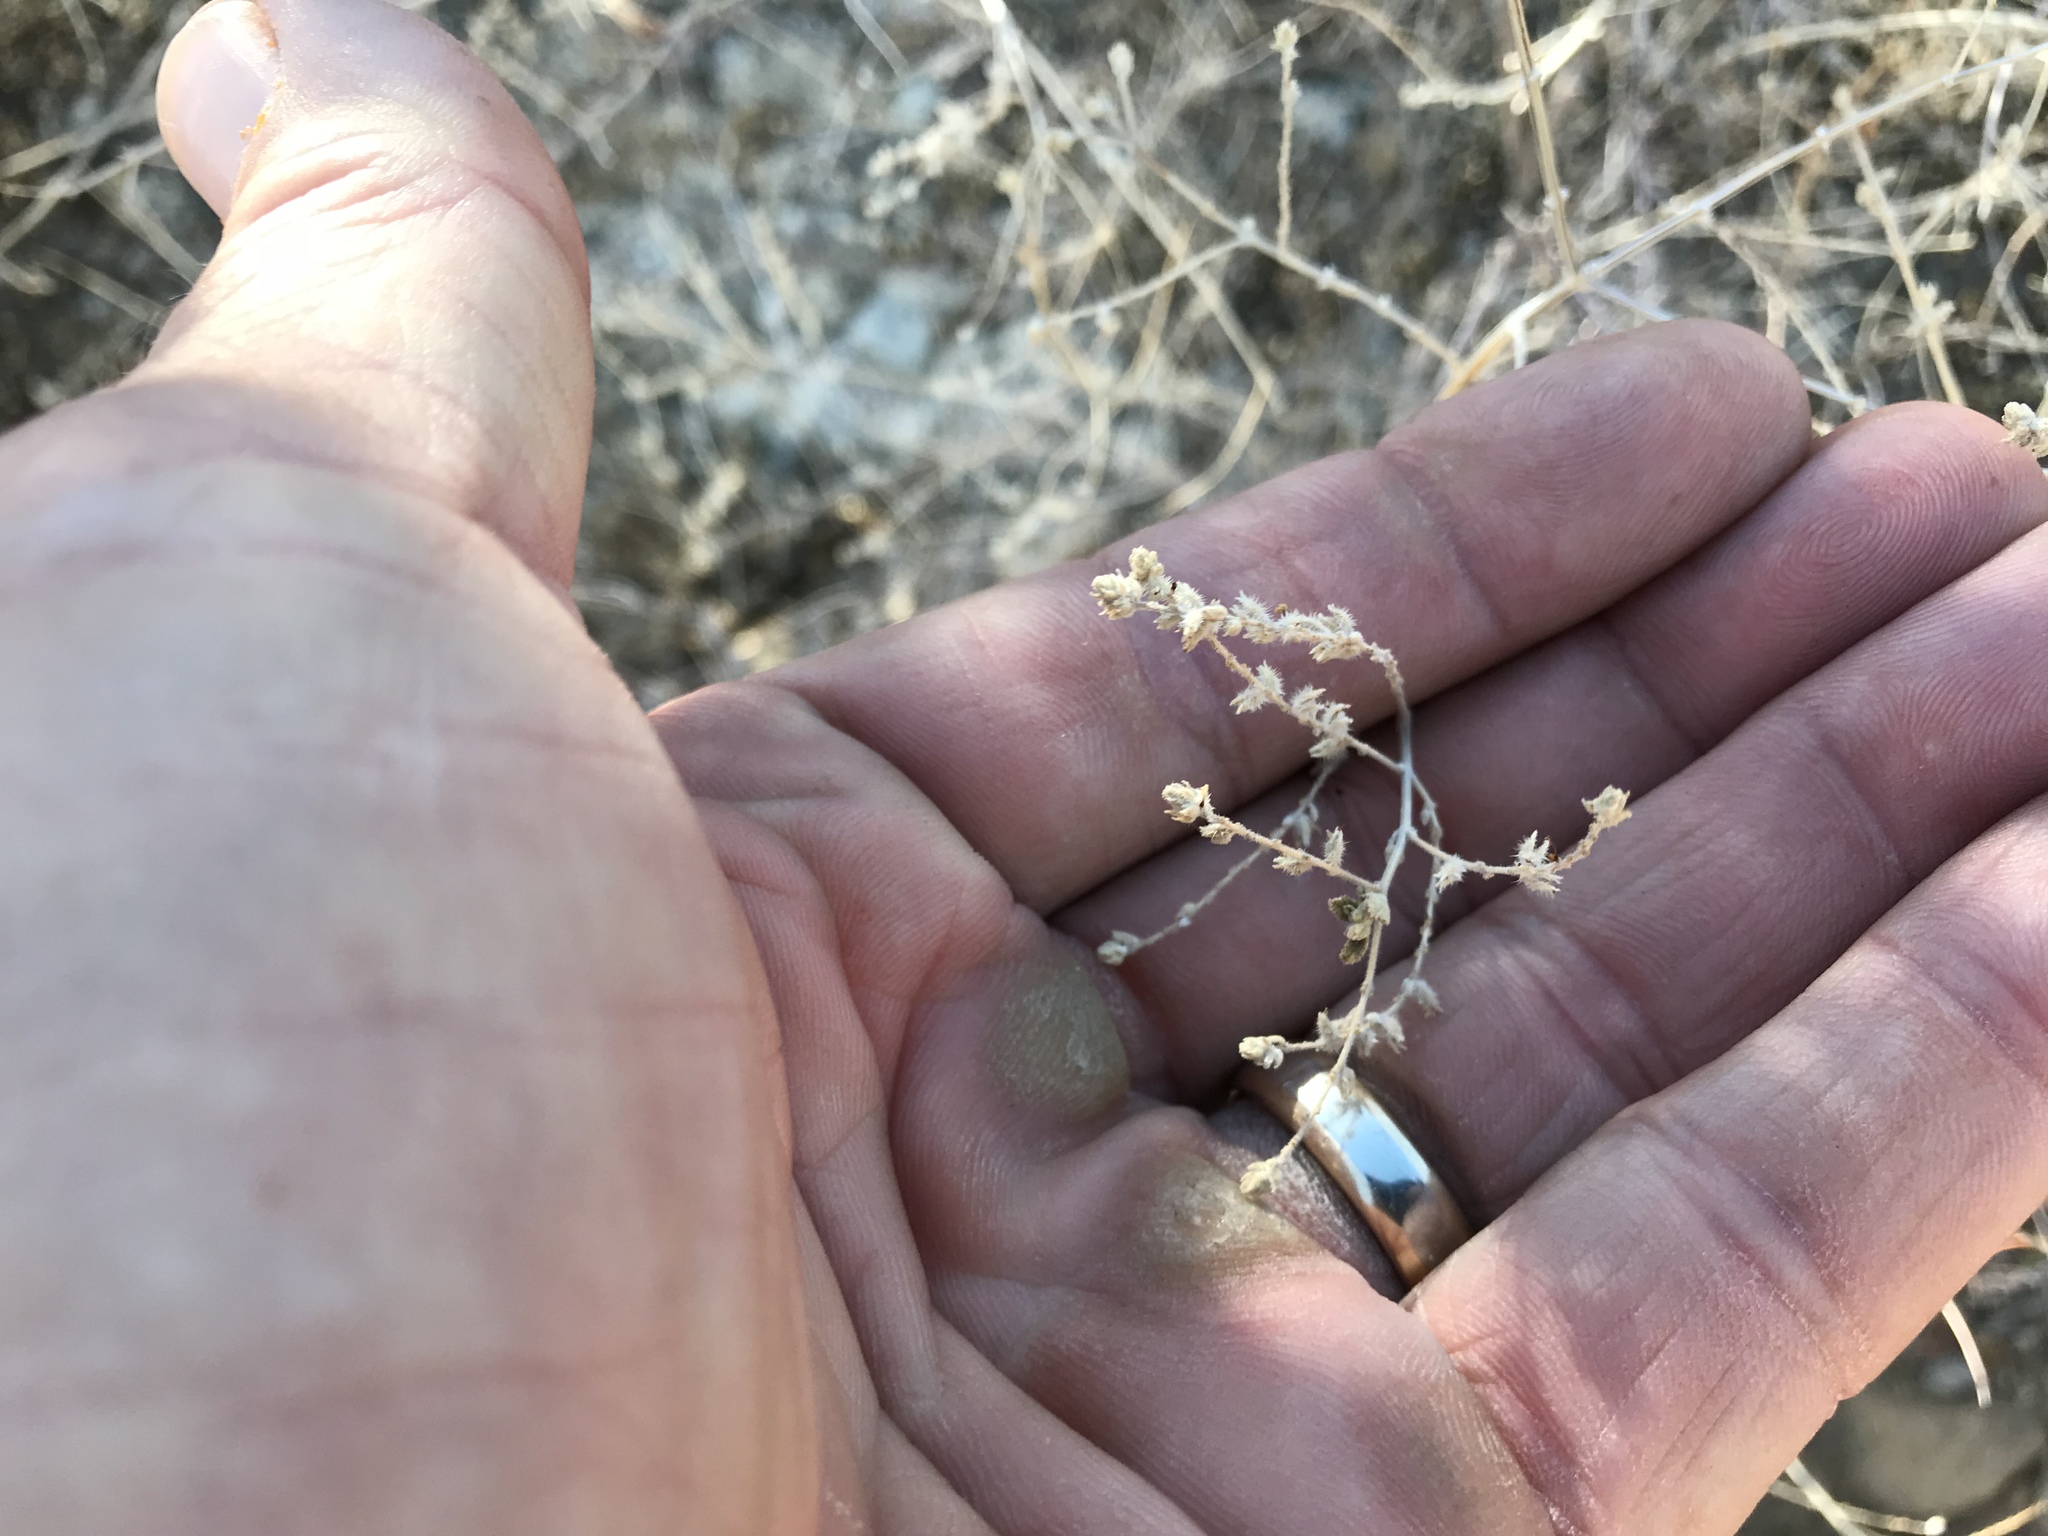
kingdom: Plantae
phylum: Tracheophyta
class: Magnoliopsida
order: Fabales
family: Fabaceae
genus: Marina
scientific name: Marina parryi
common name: Parry's marina
